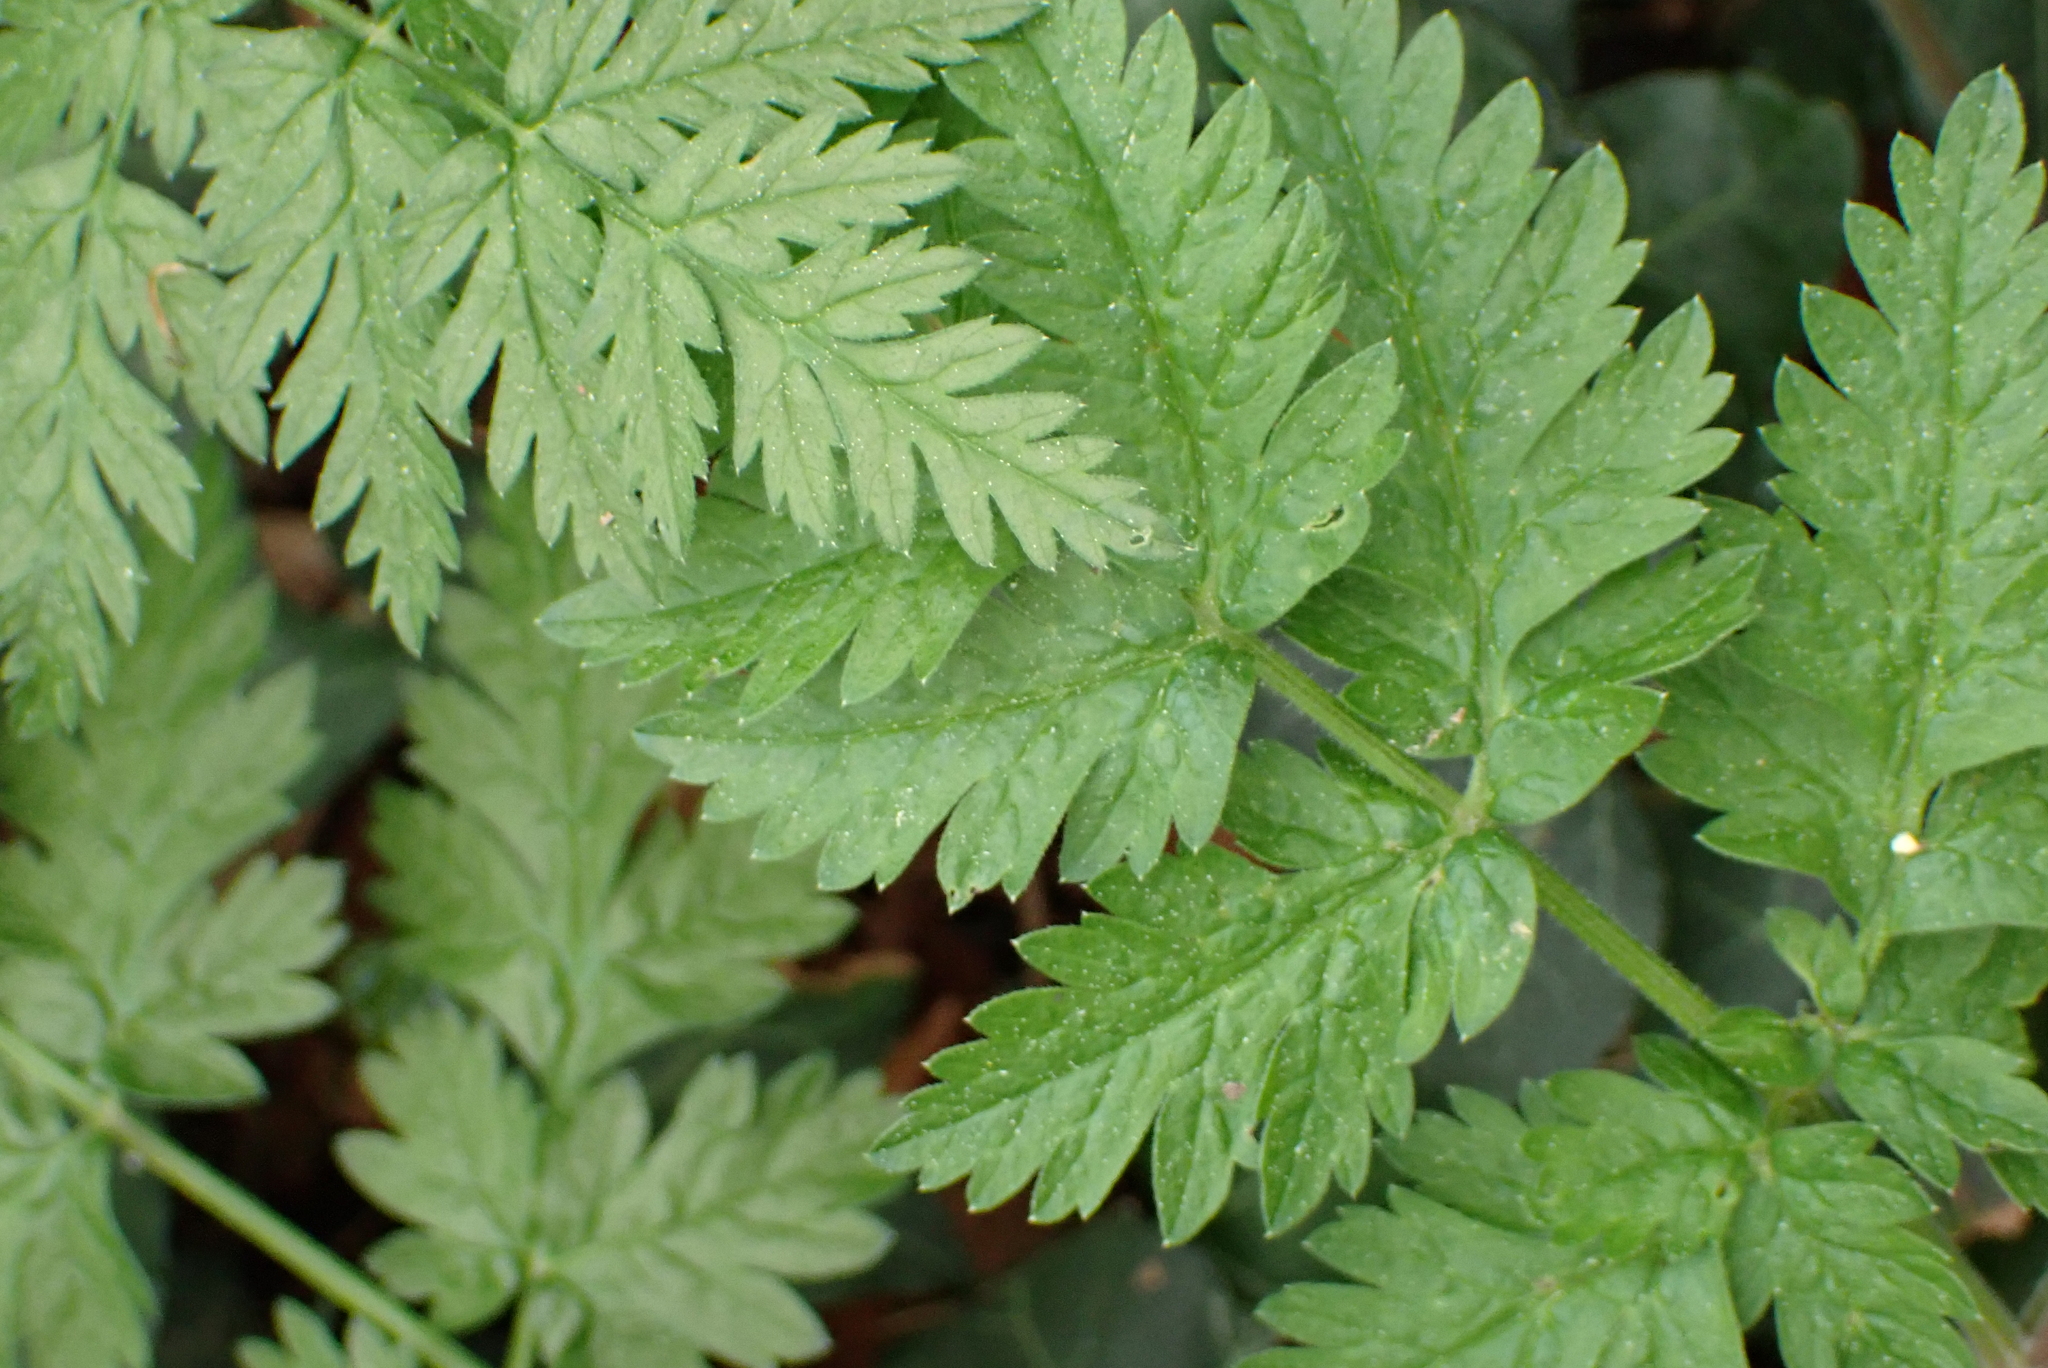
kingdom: Plantae
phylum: Tracheophyta
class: Magnoliopsida
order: Apiales
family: Apiaceae
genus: Anthriscus
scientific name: Anthriscus sylvestris
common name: Cow parsley
